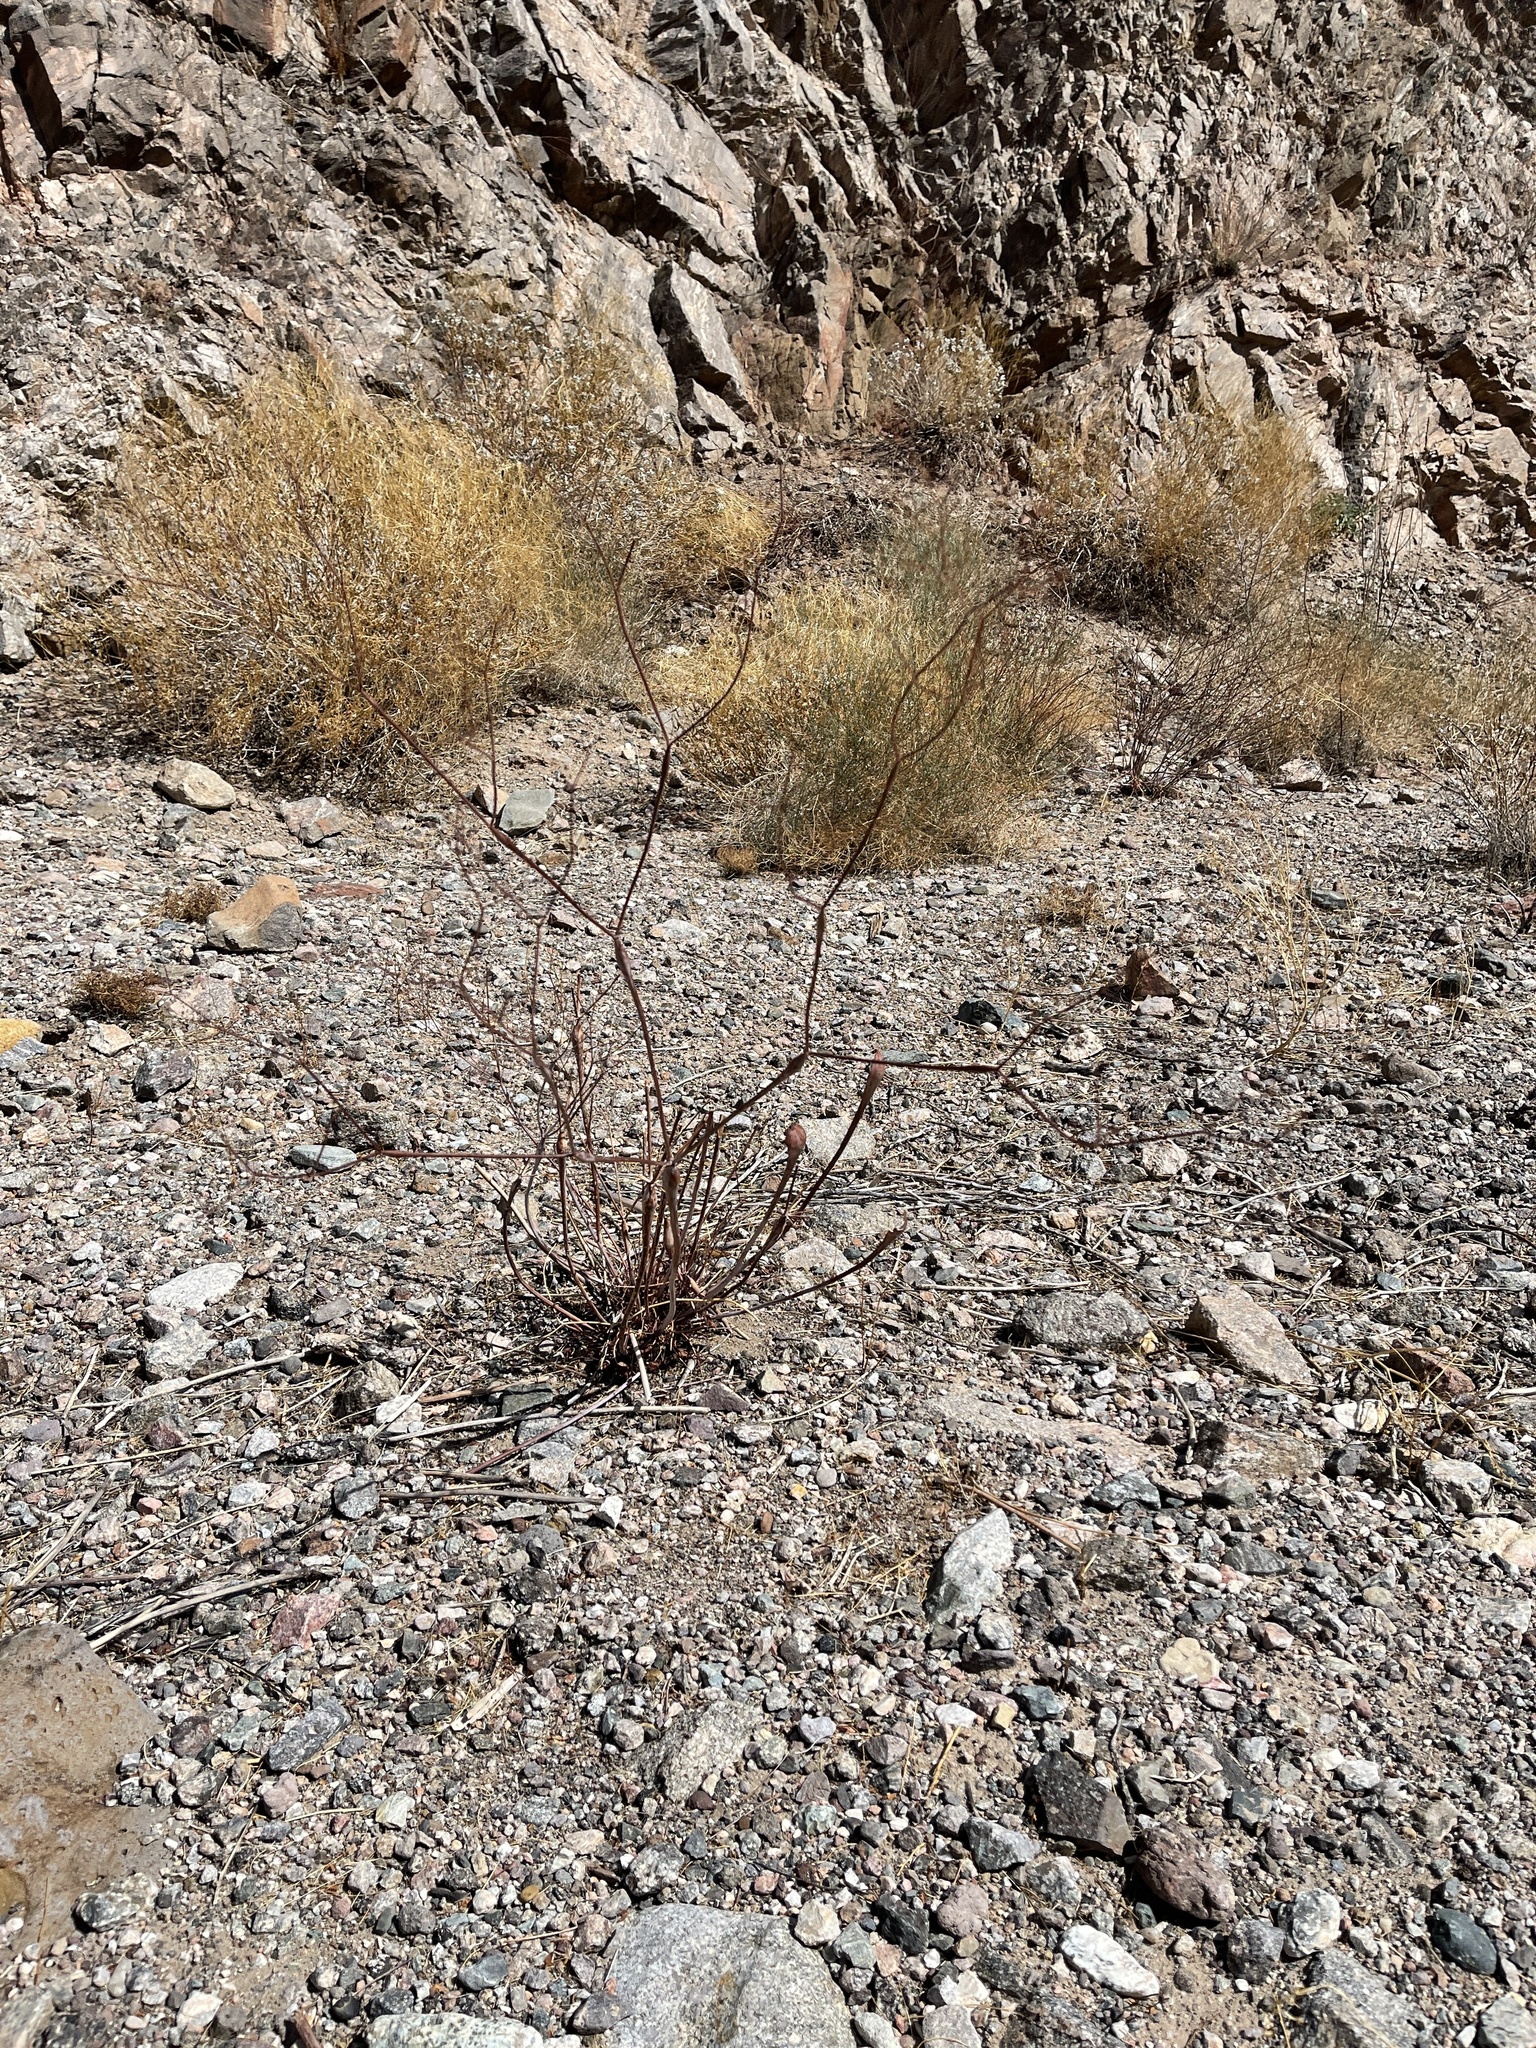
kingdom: Plantae
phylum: Tracheophyta
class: Magnoliopsida
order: Caryophyllales
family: Polygonaceae
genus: Eriogonum
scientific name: Eriogonum inflatum
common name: Desert trumpet
